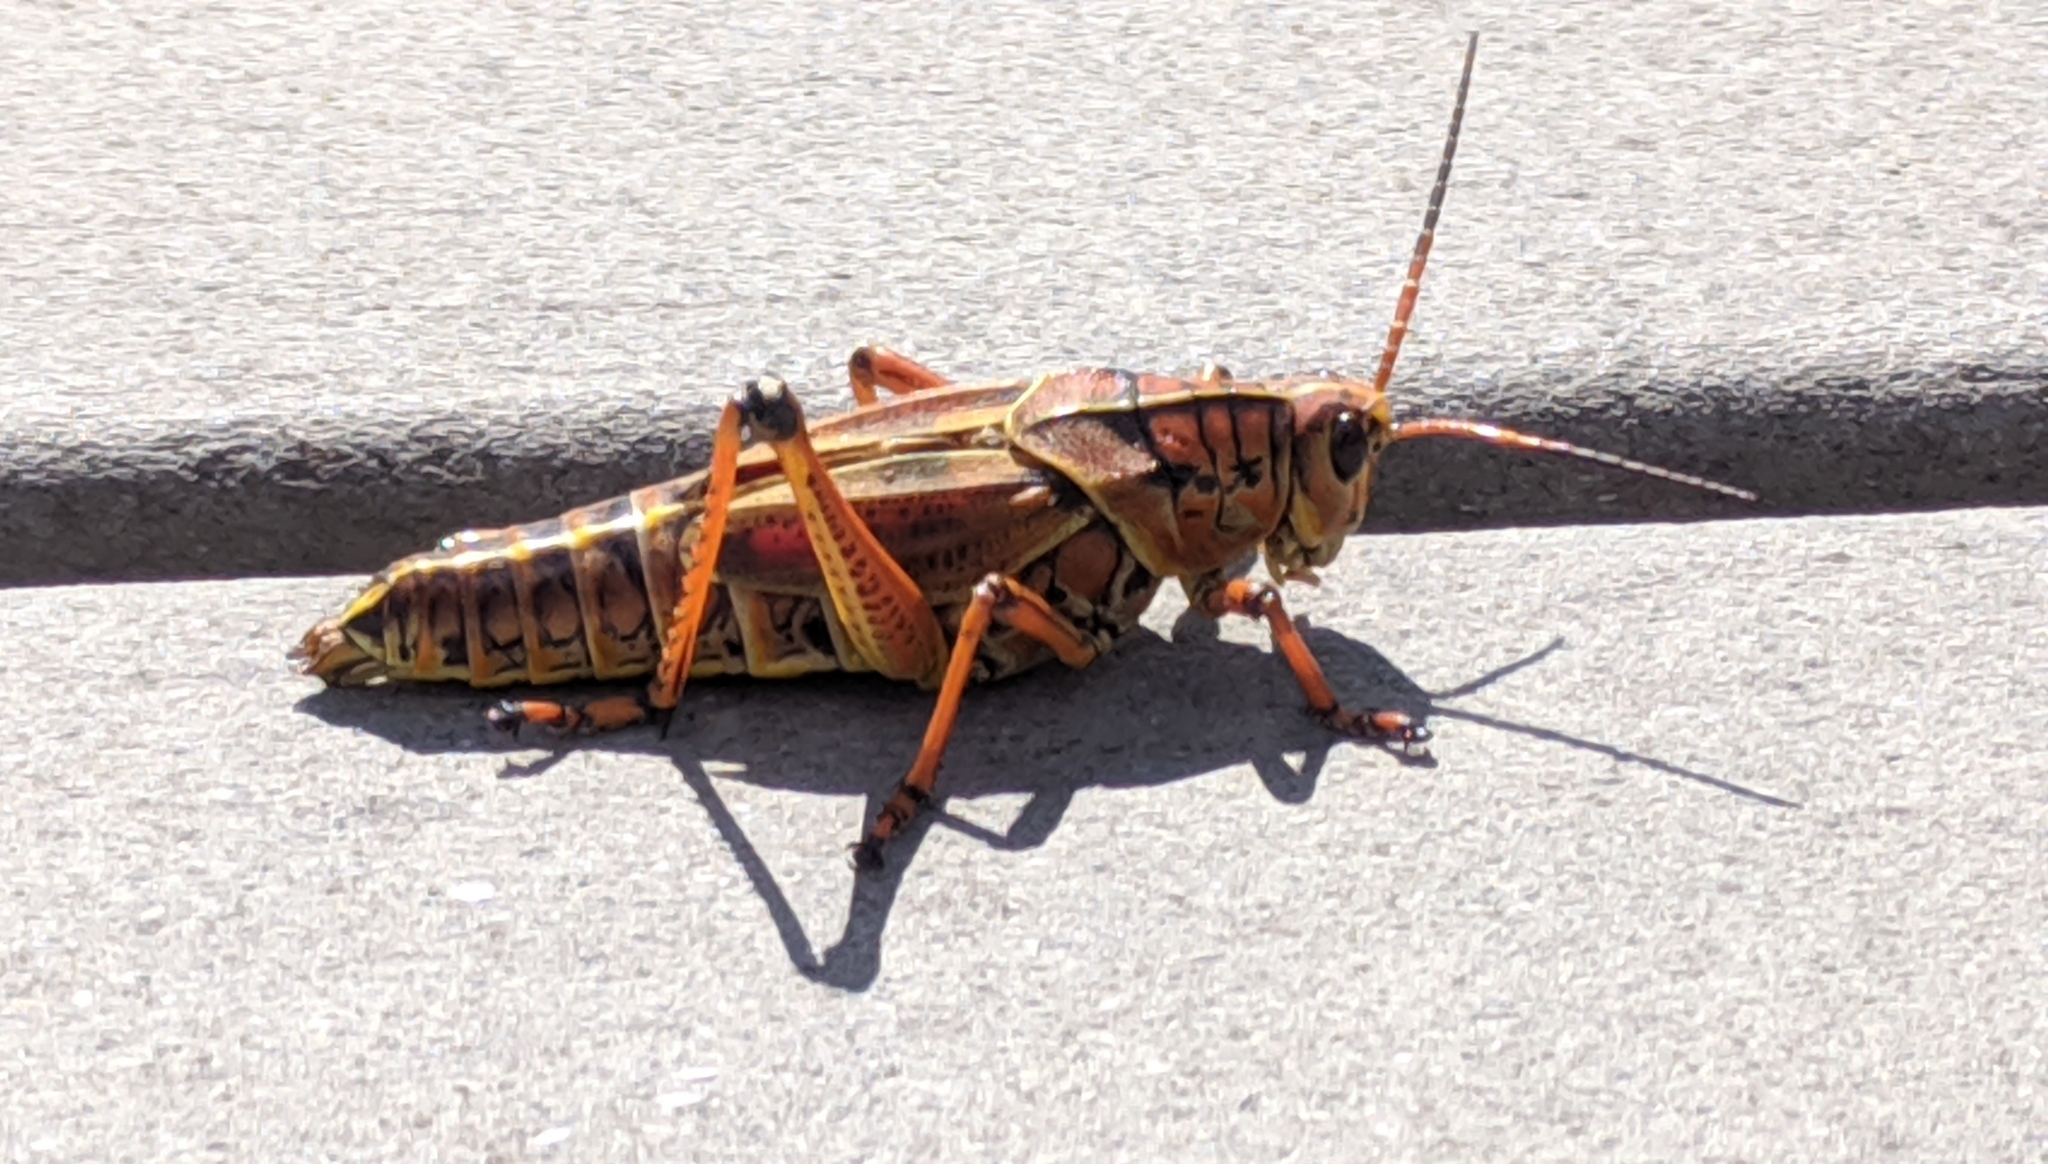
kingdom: Animalia
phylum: Arthropoda
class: Insecta
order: Orthoptera
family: Romaleidae
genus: Romalea
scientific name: Romalea microptera
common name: Eastern lubber grasshopper
